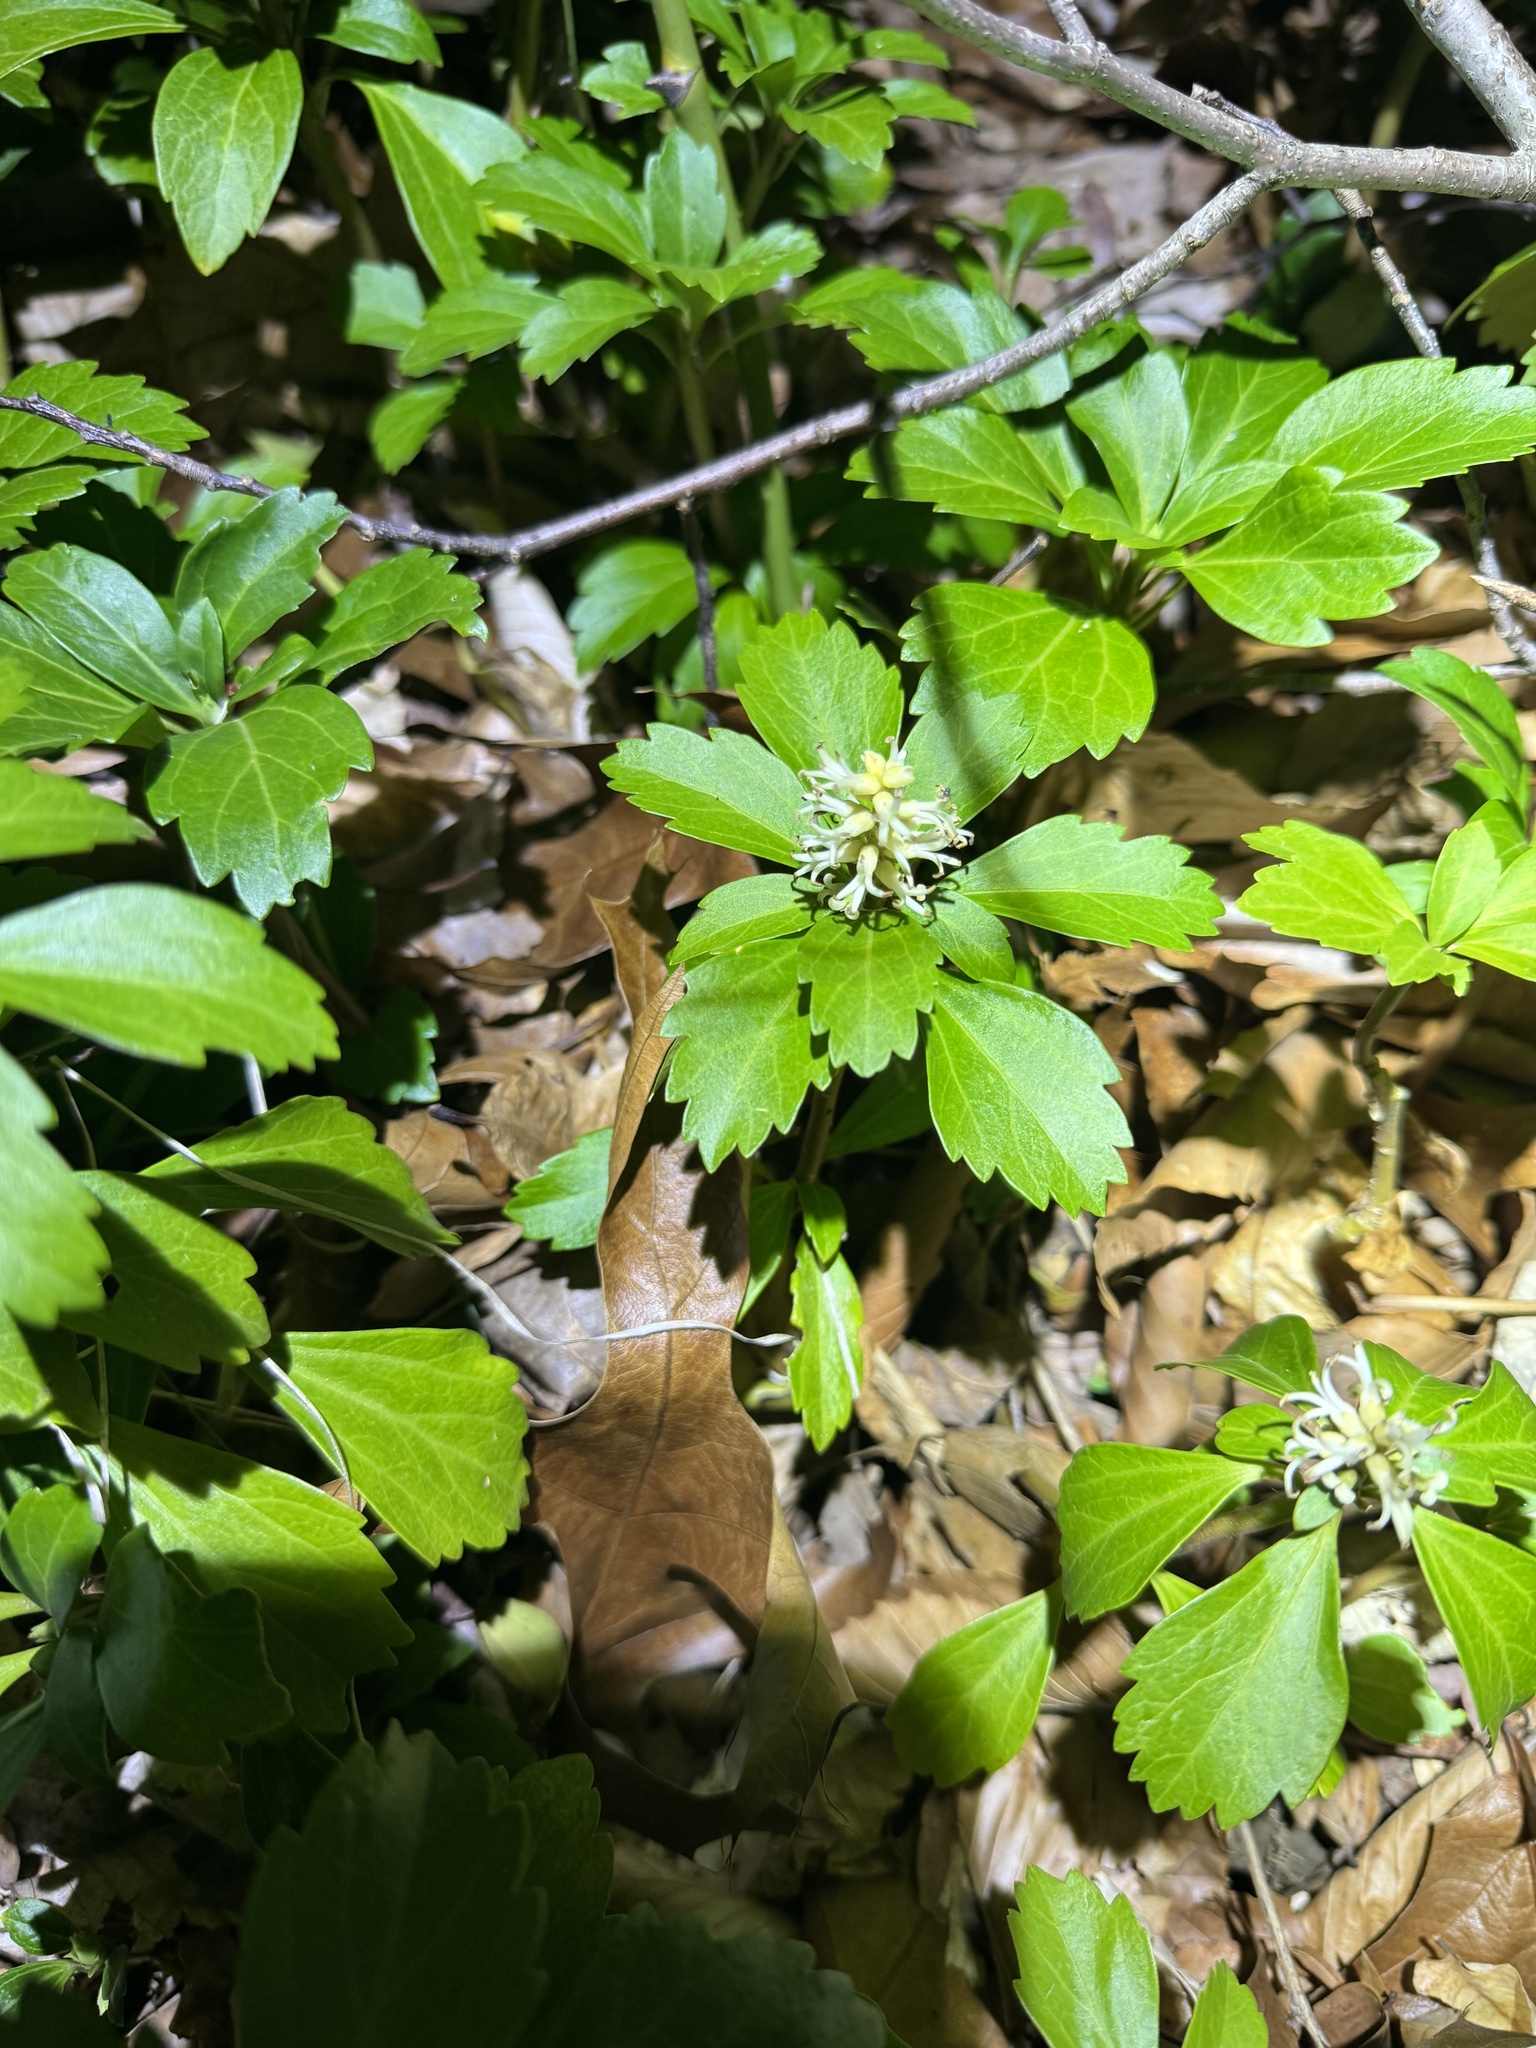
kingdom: Plantae
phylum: Tracheophyta
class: Magnoliopsida
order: Buxales
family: Buxaceae
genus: Pachysandra
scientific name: Pachysandra terminalis
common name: Japanese pachysandra
